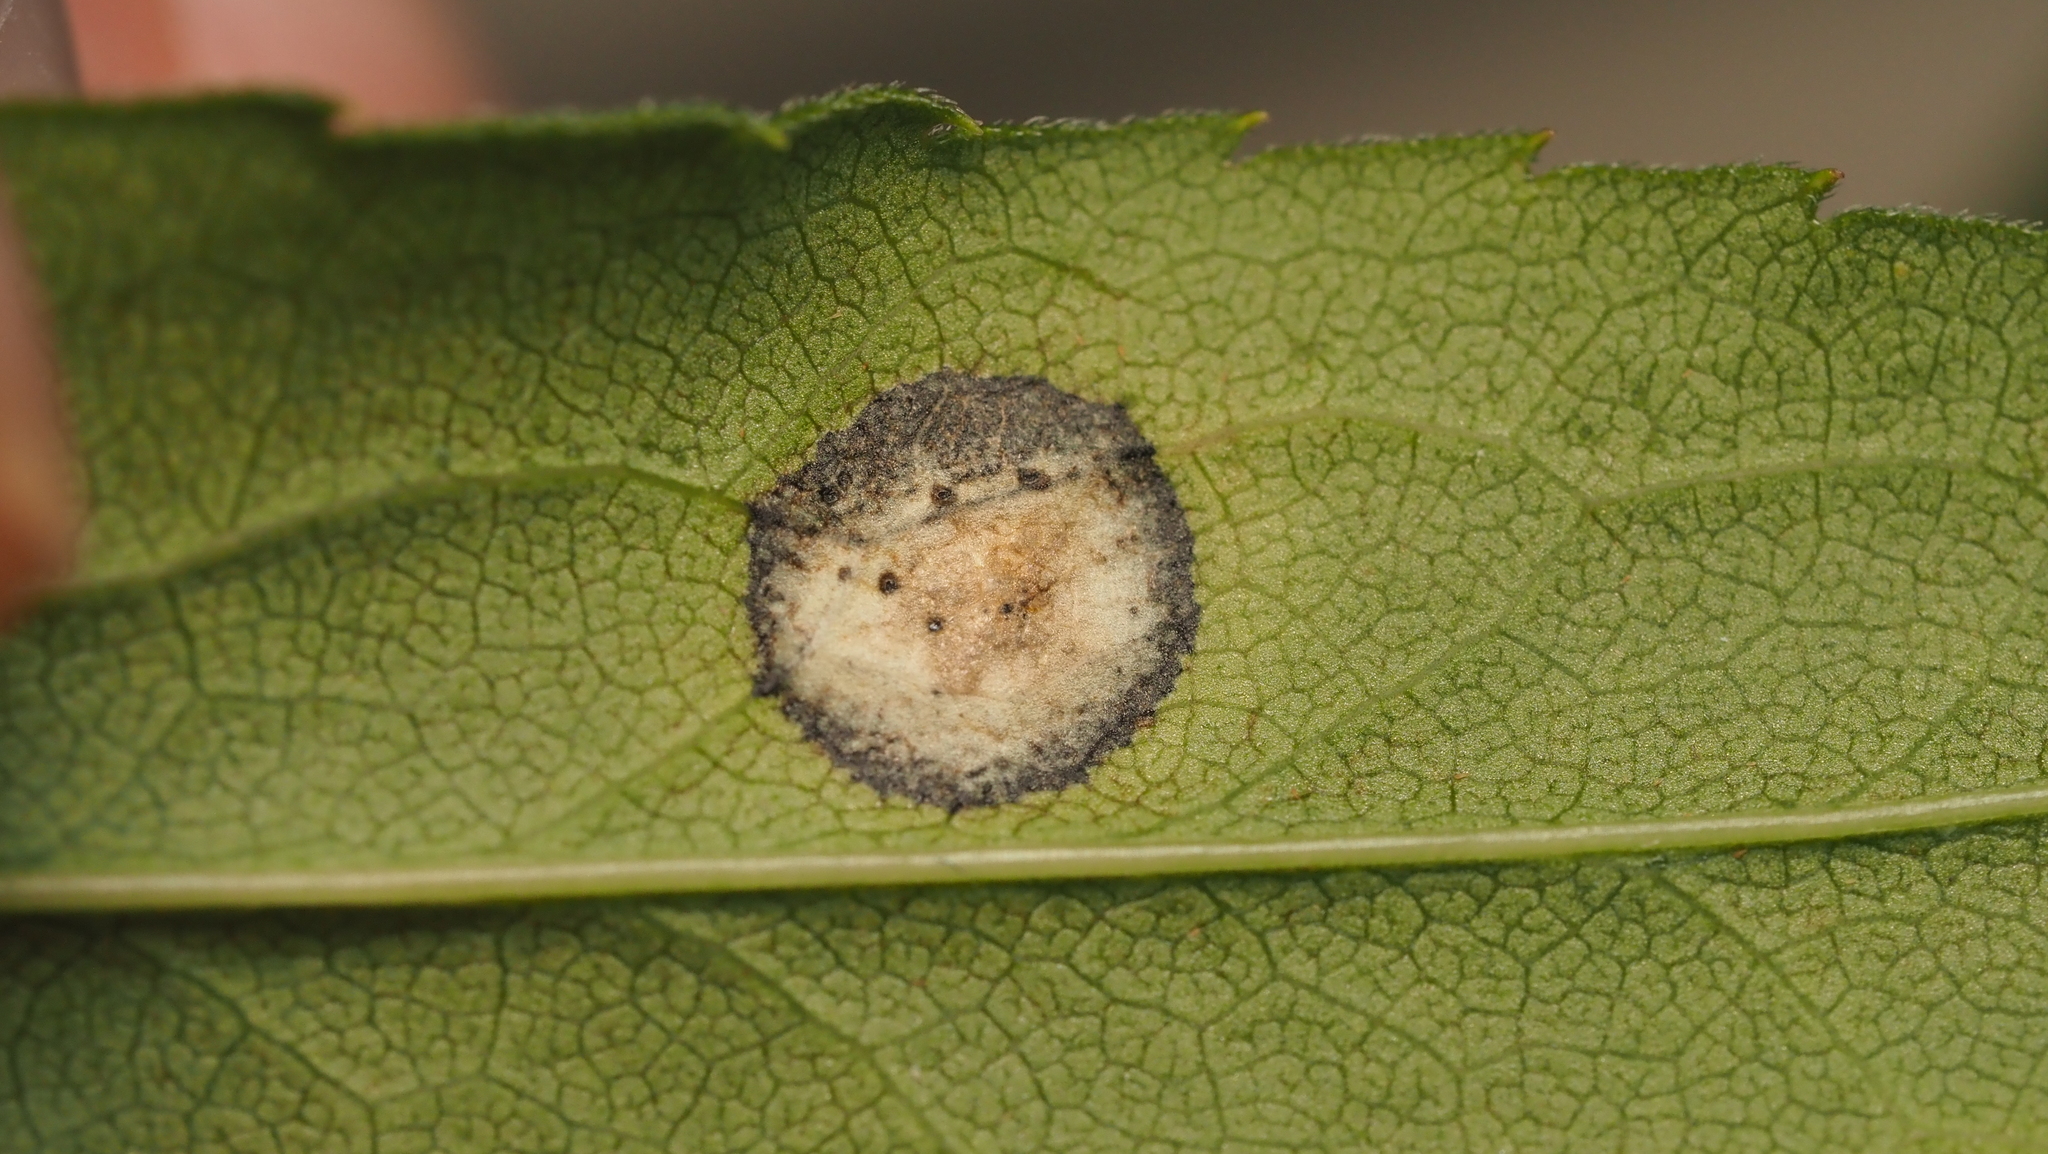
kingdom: Animalia
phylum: Arthropoda
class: Insecta
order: Diptera
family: Cecidomyiidae
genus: Asteromyia
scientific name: Asteromyia carbonifera
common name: Carbonifera goldenrod gall midge
